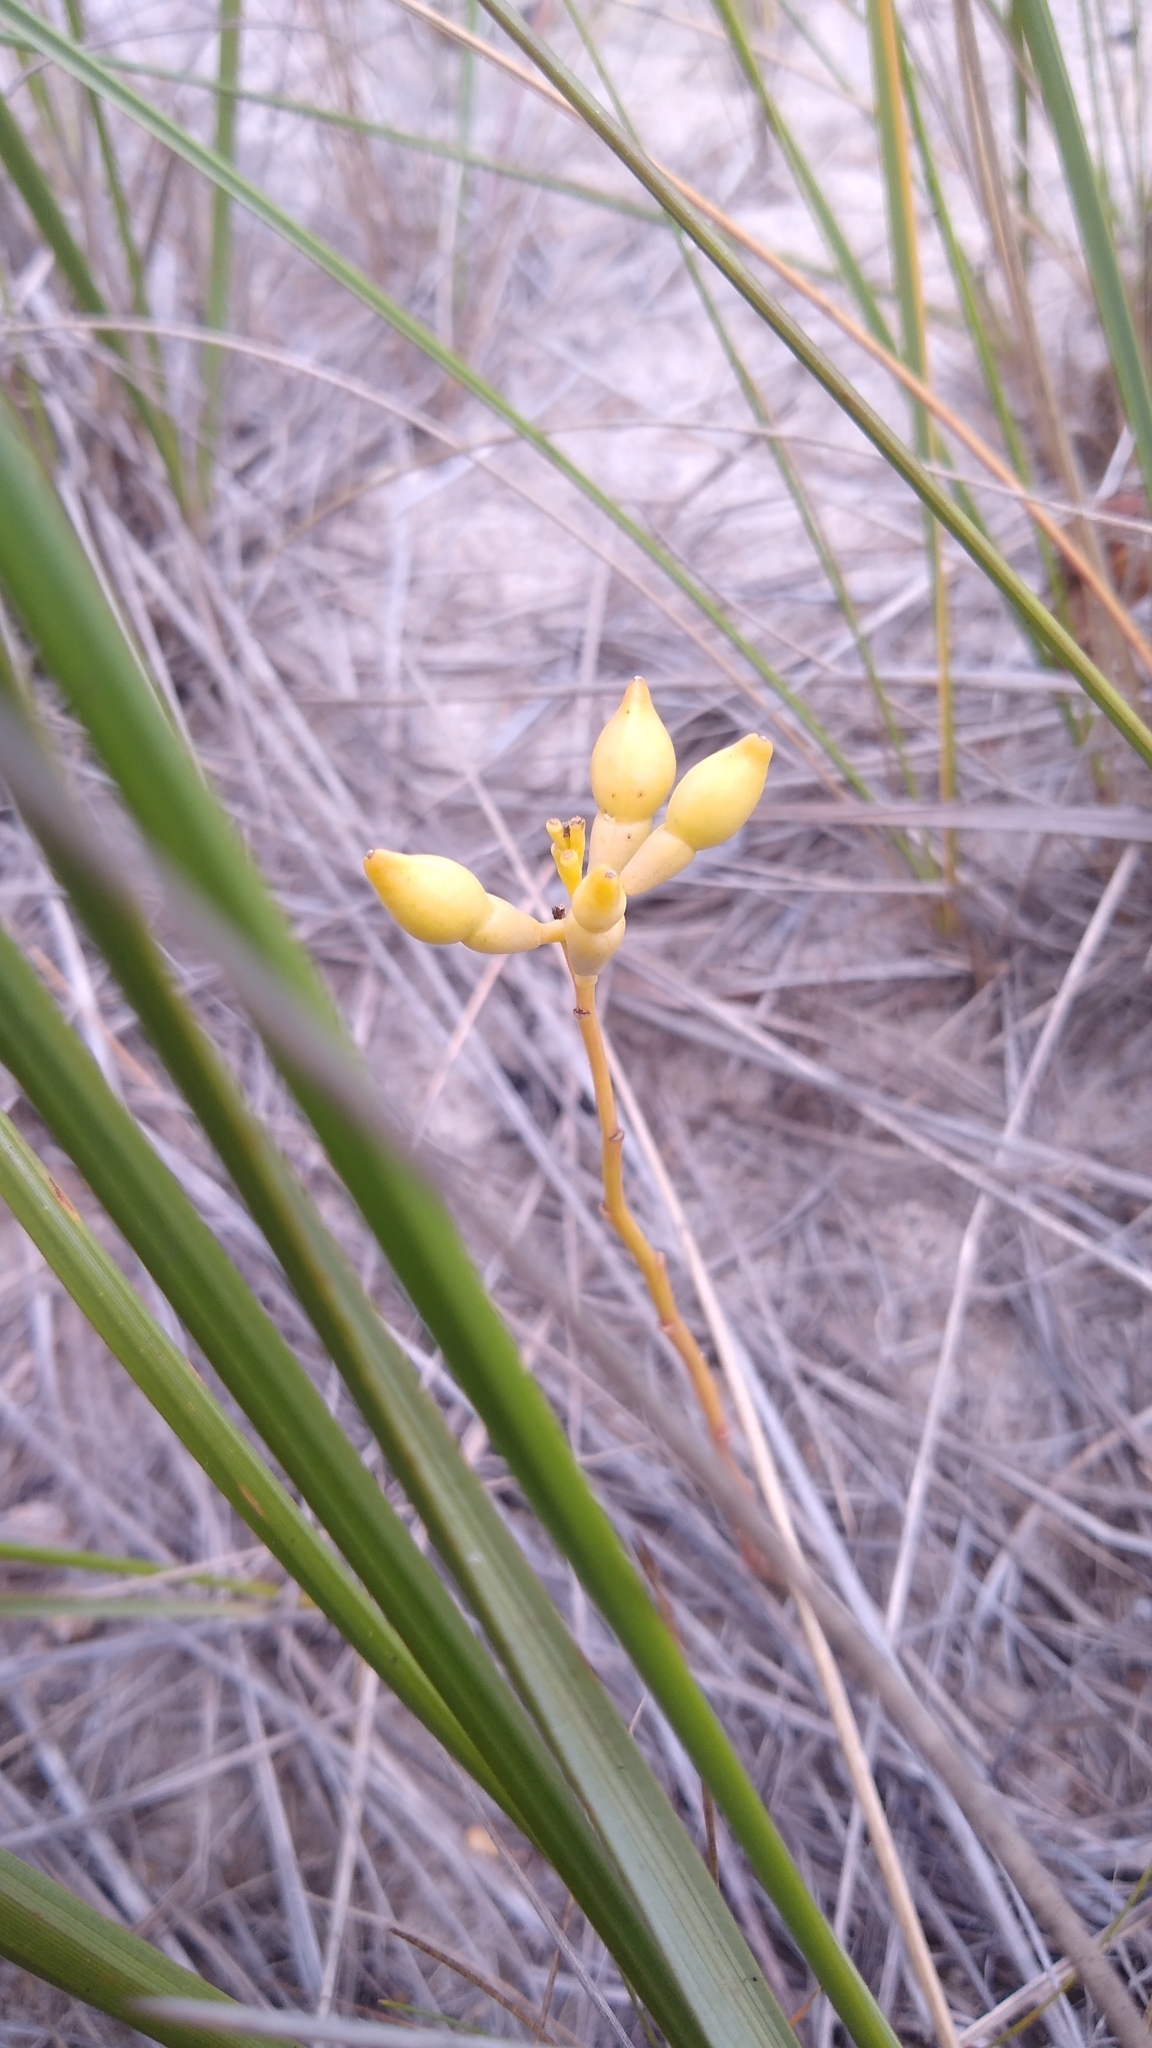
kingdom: Plantae
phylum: Tracheophyta
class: Magnoliopsida
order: Brassicales
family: Brassicaceae
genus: Cakile
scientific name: Cakile edentula
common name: American sea rocket
